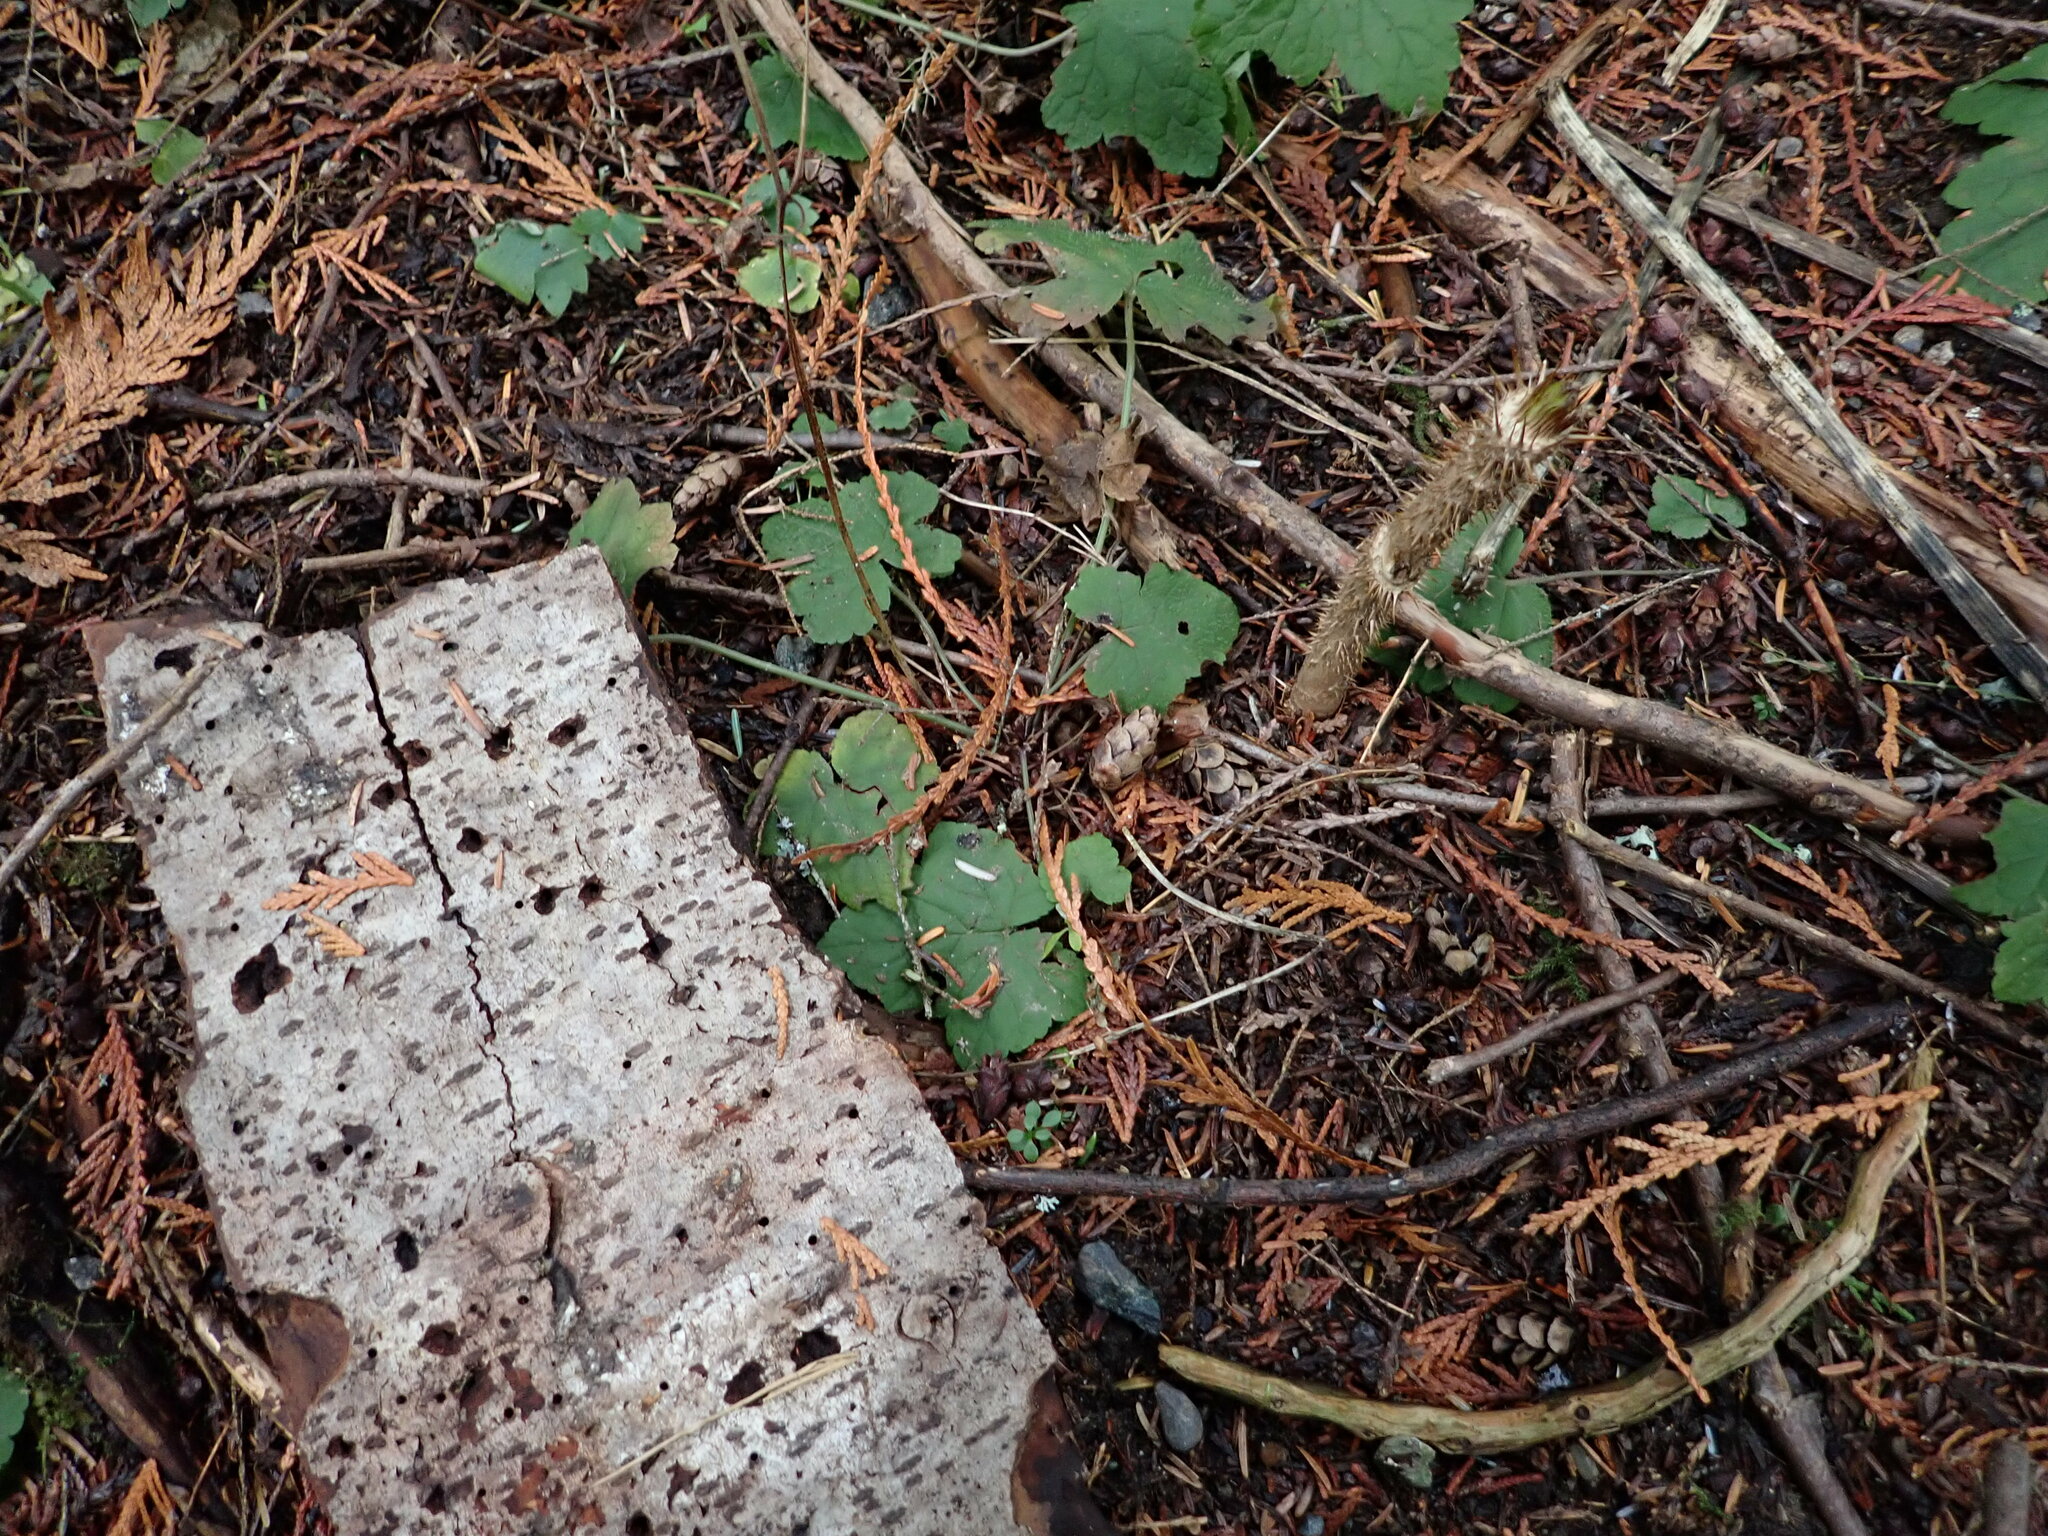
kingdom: Plantae
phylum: Tracheophyta
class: Magnoliopsida
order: Saxifragales
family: Saxifragaceae
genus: Tiarella
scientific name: Tiarella trifoliata
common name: Sugar-scoop
